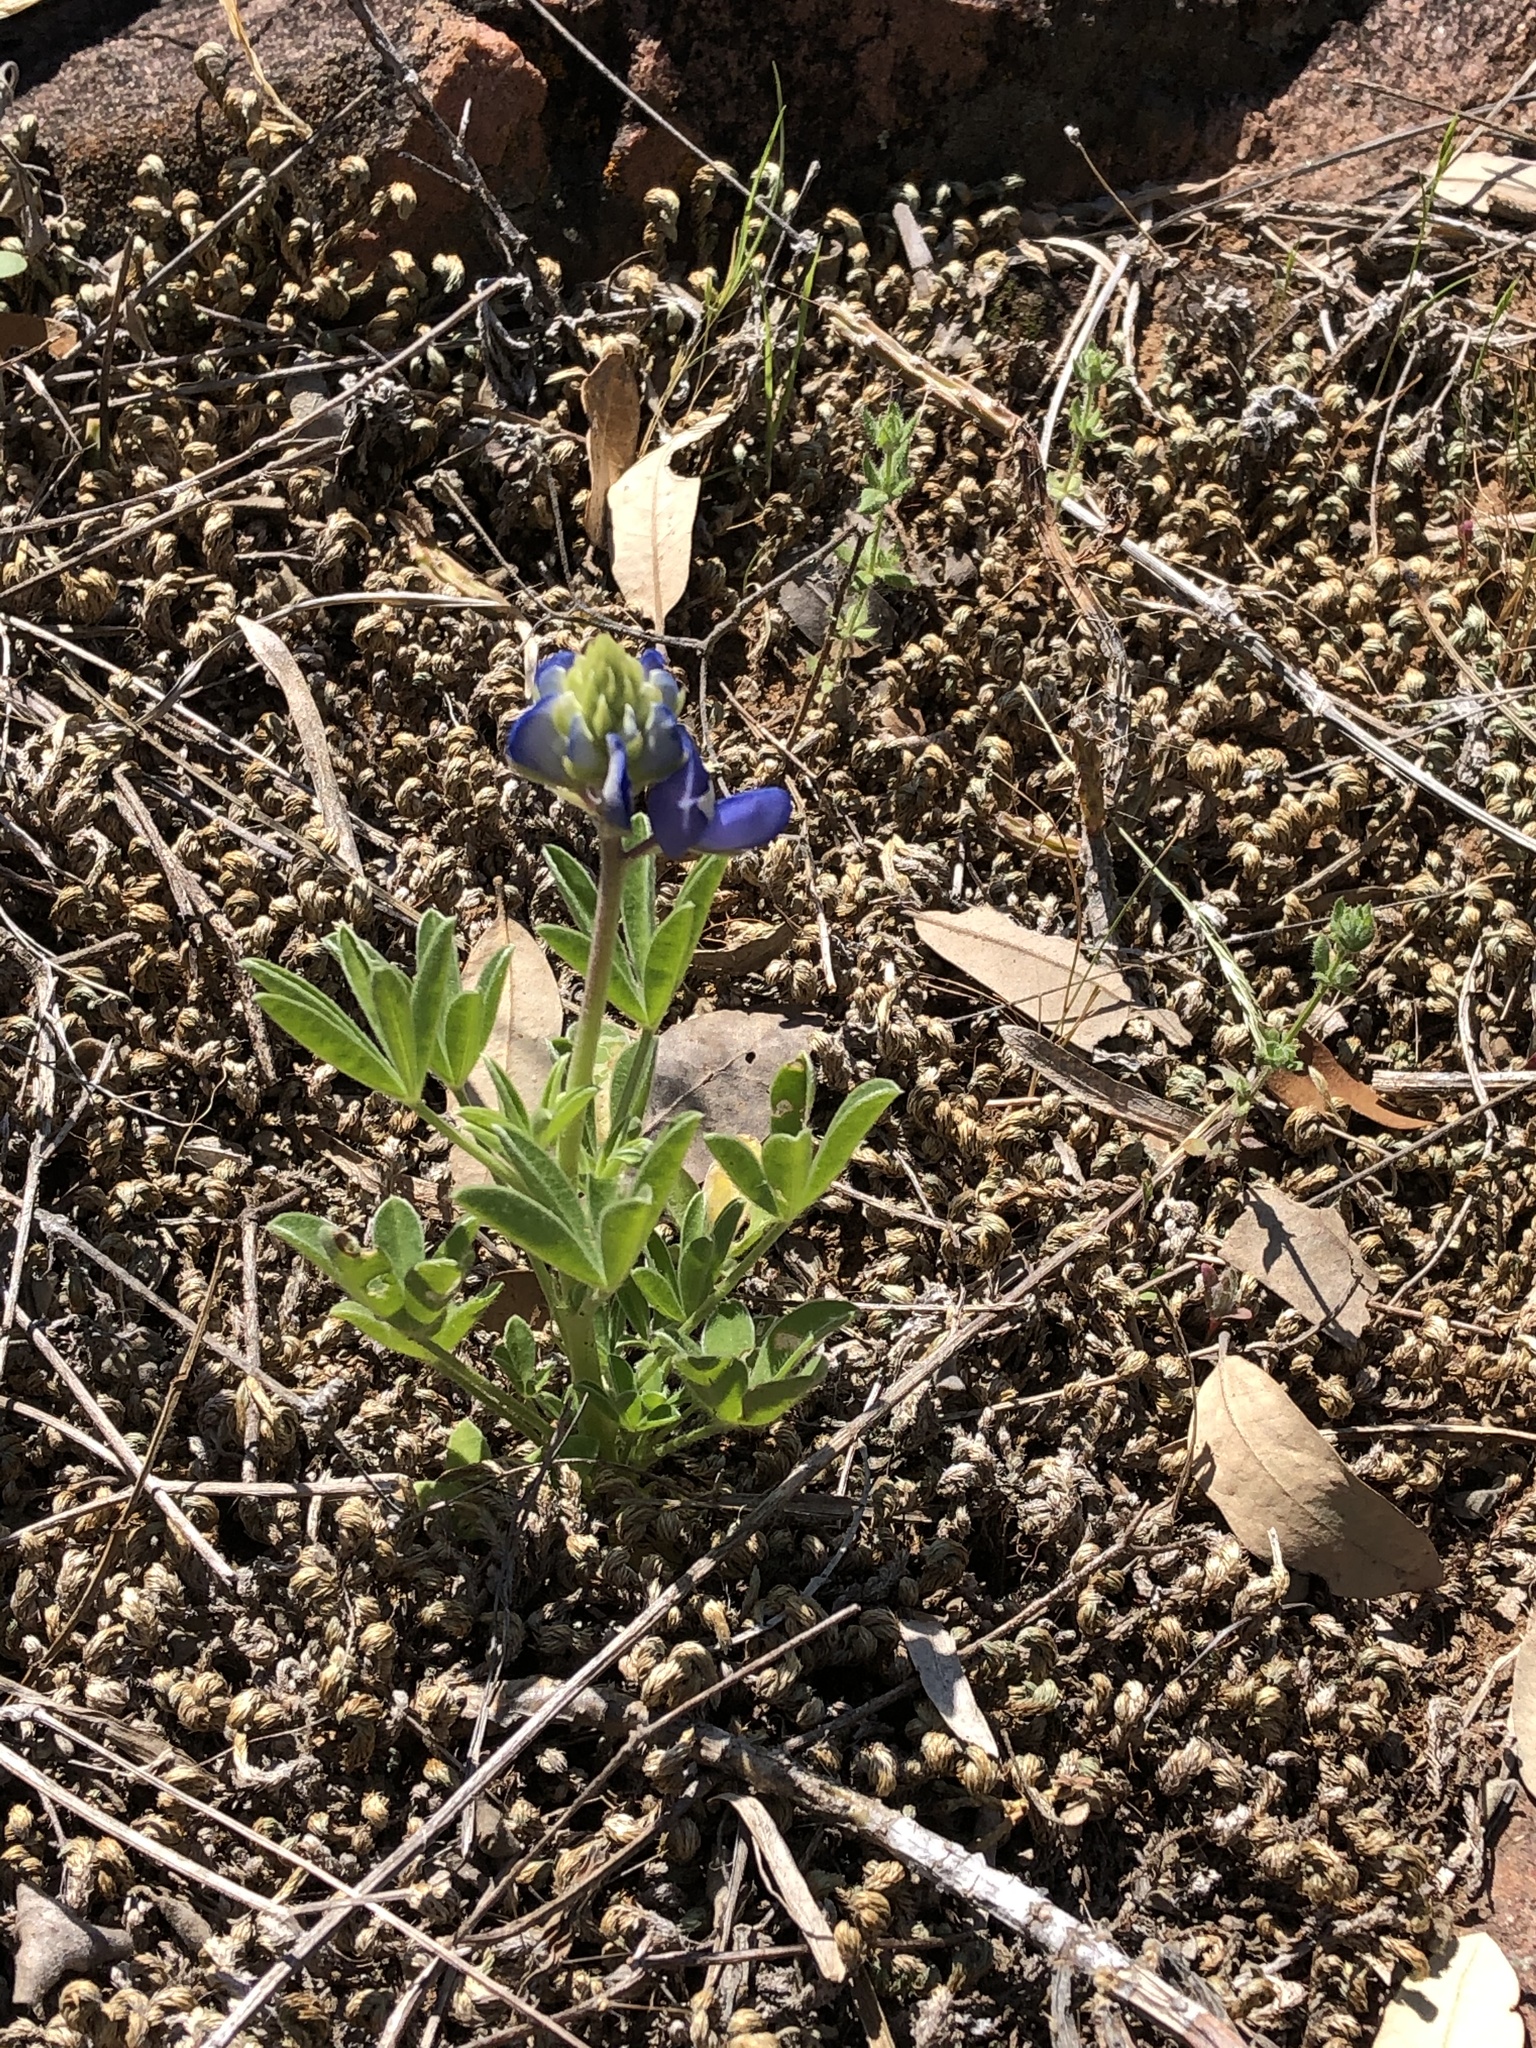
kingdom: Plantae
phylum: Tracheophyta
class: Magnoliopsida
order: Fabales
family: Fabaceae
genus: Lupinus
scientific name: Lupinus texensis
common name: Texas bluebonnet
